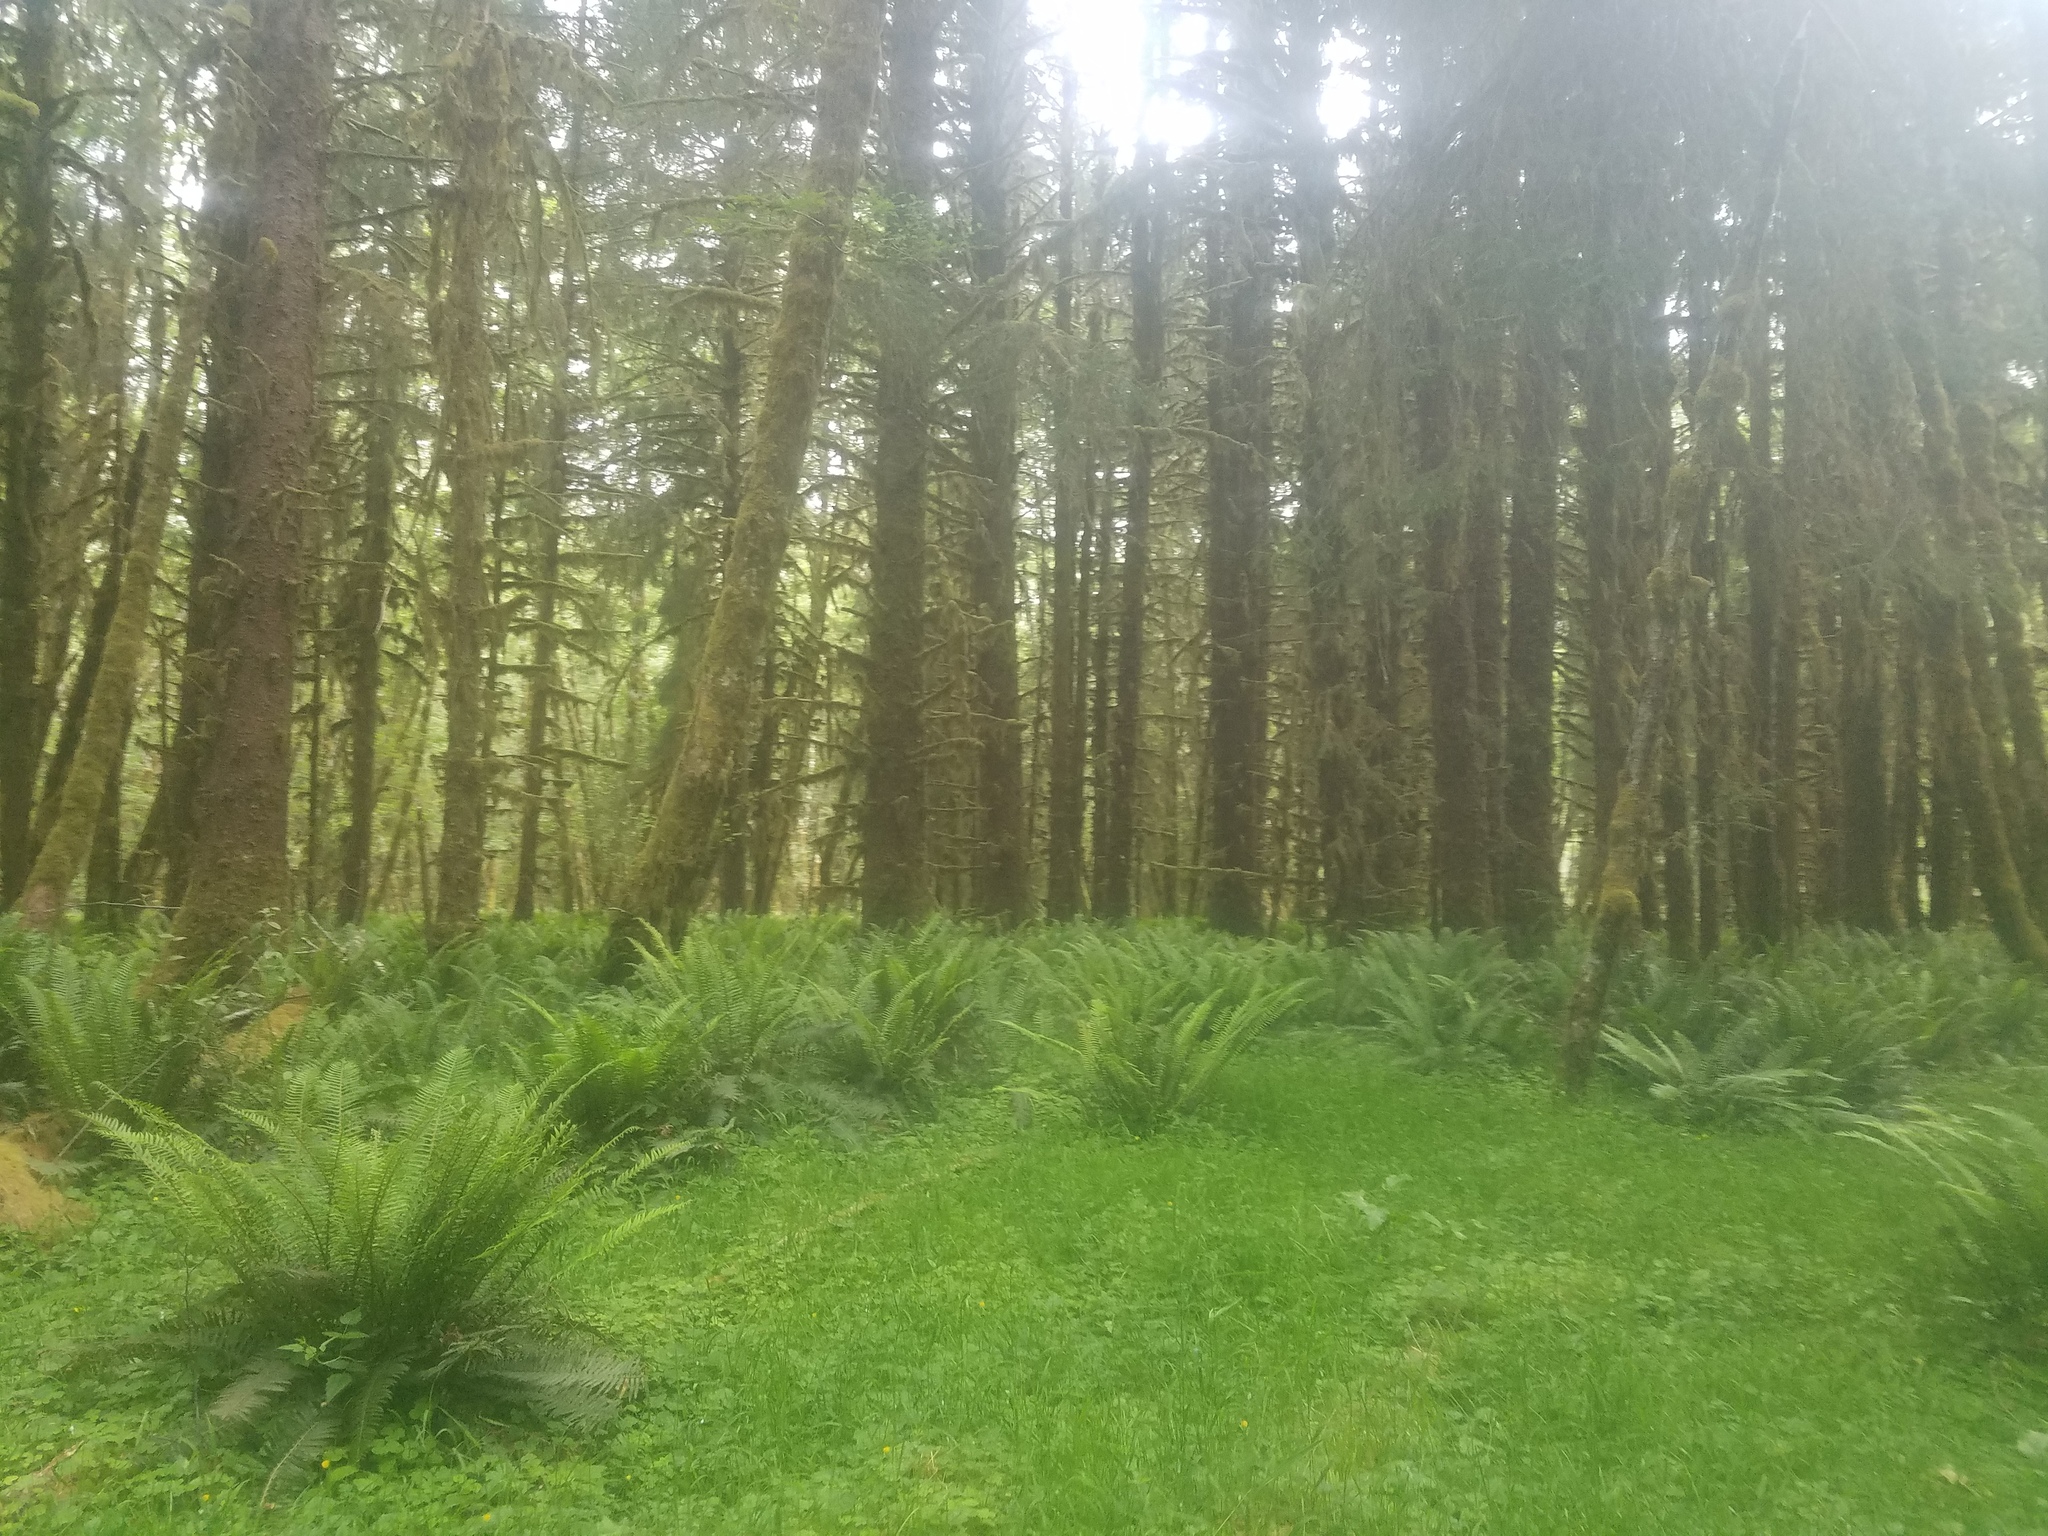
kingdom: Plantae
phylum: Tracheophyta
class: Polypodiopsida
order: Polypodiales
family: Dryopteridaceae
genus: Polystichum
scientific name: Polystichum munitum
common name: Western sword-fern
